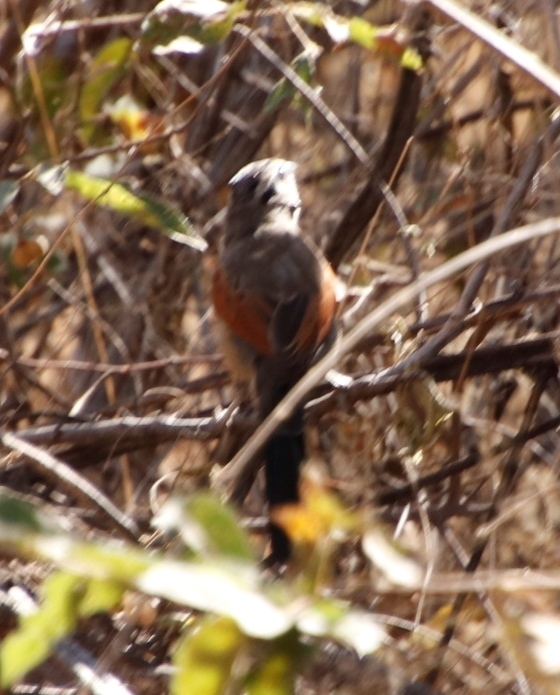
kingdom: Animalia
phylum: Chordata
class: Aves
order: Passeriformes
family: Malaconotidae
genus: Tchagra
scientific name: Tchagra australis
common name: Brown-crowned tchagra
